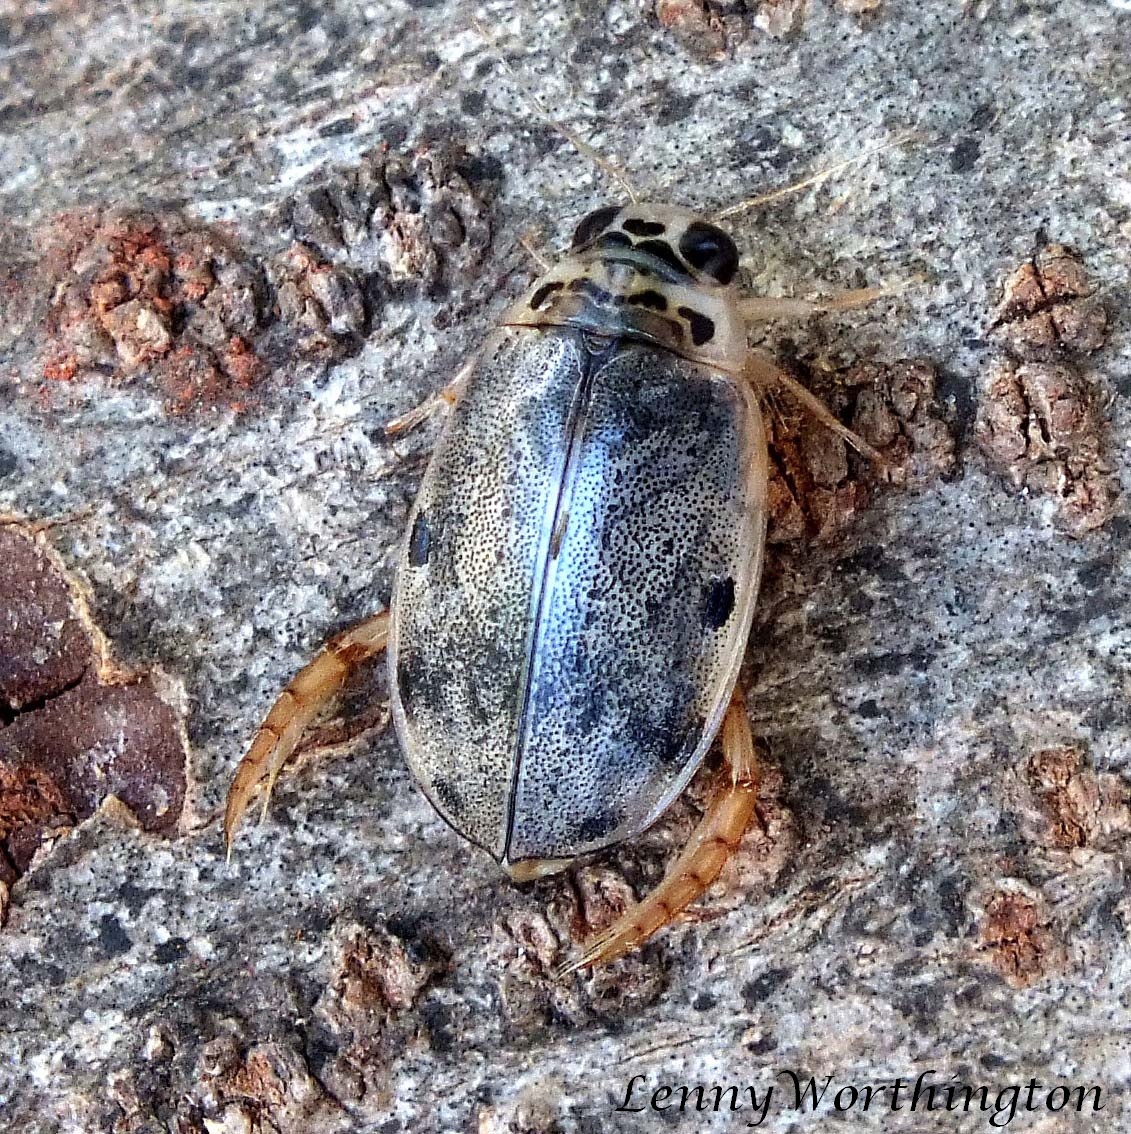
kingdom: Animalia
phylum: Arthropoda
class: Insecta
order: Coleoptera
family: Dytiscidae
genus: Eretes
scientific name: Eretes griseus
